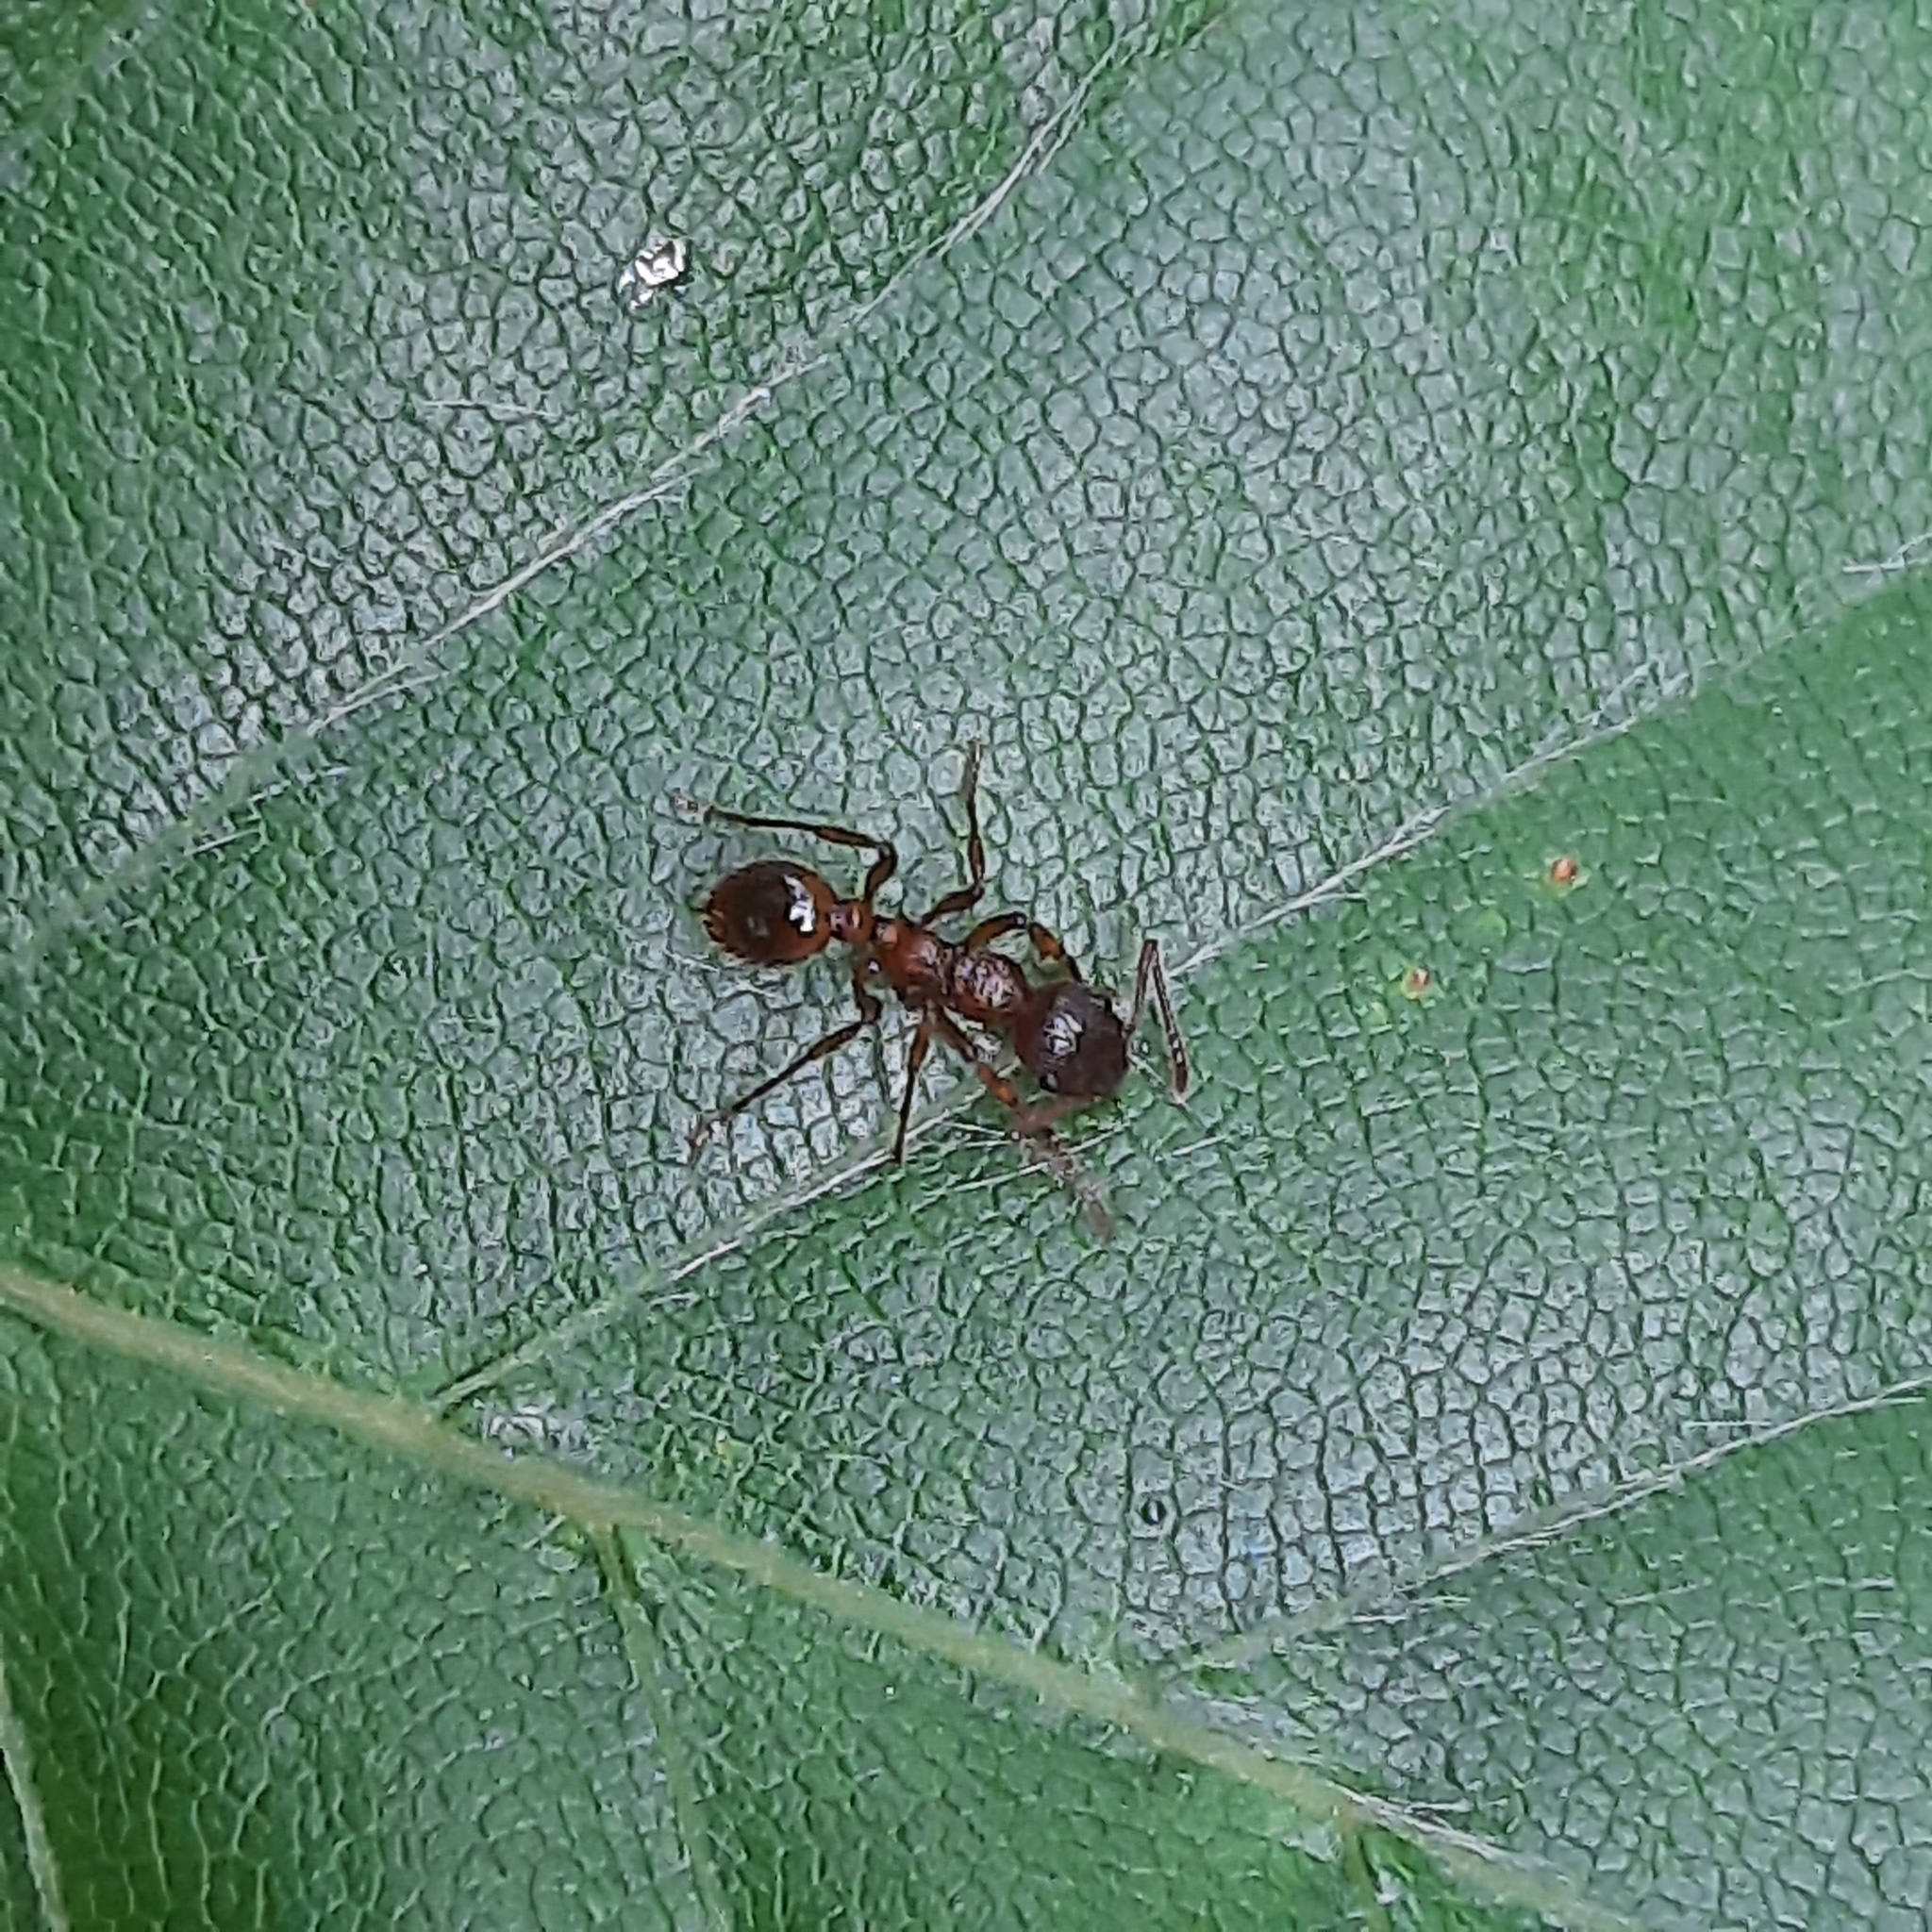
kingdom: Animalia
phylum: Arthropoda
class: Insecta
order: Hymenoptera
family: Formicidae
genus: Myrmica
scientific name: Myrmica
